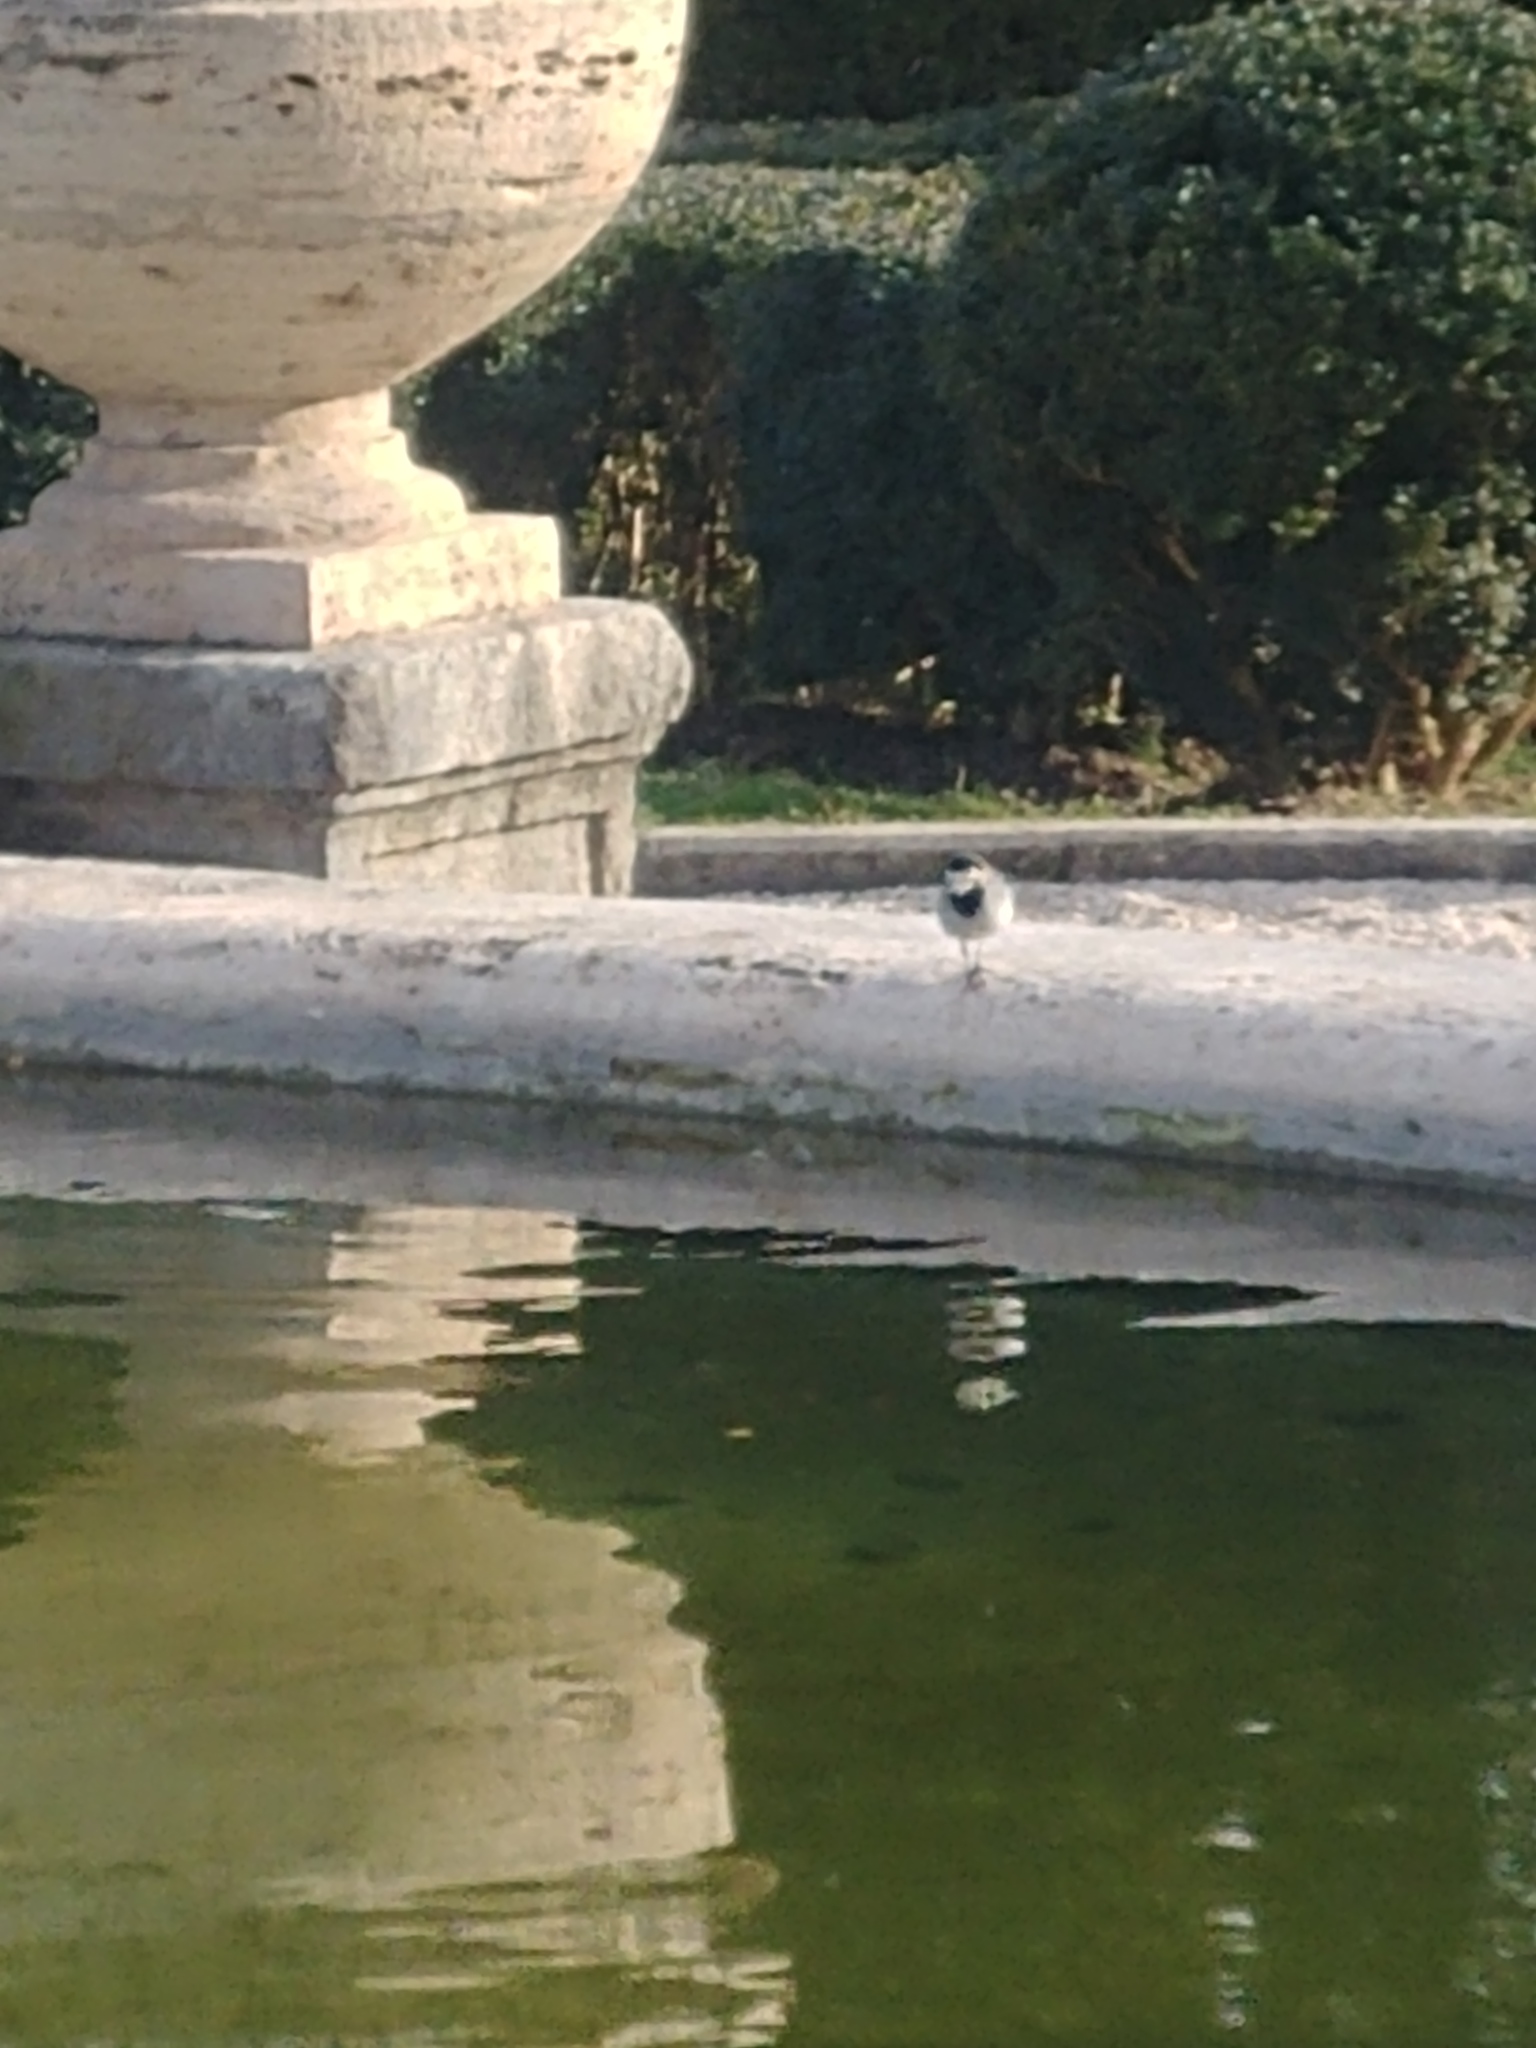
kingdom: Animalia
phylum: Chordata
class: Aves
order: Passeriformes
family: Motacillidae
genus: Motacilla
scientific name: Motacilla alba
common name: White wagtail
